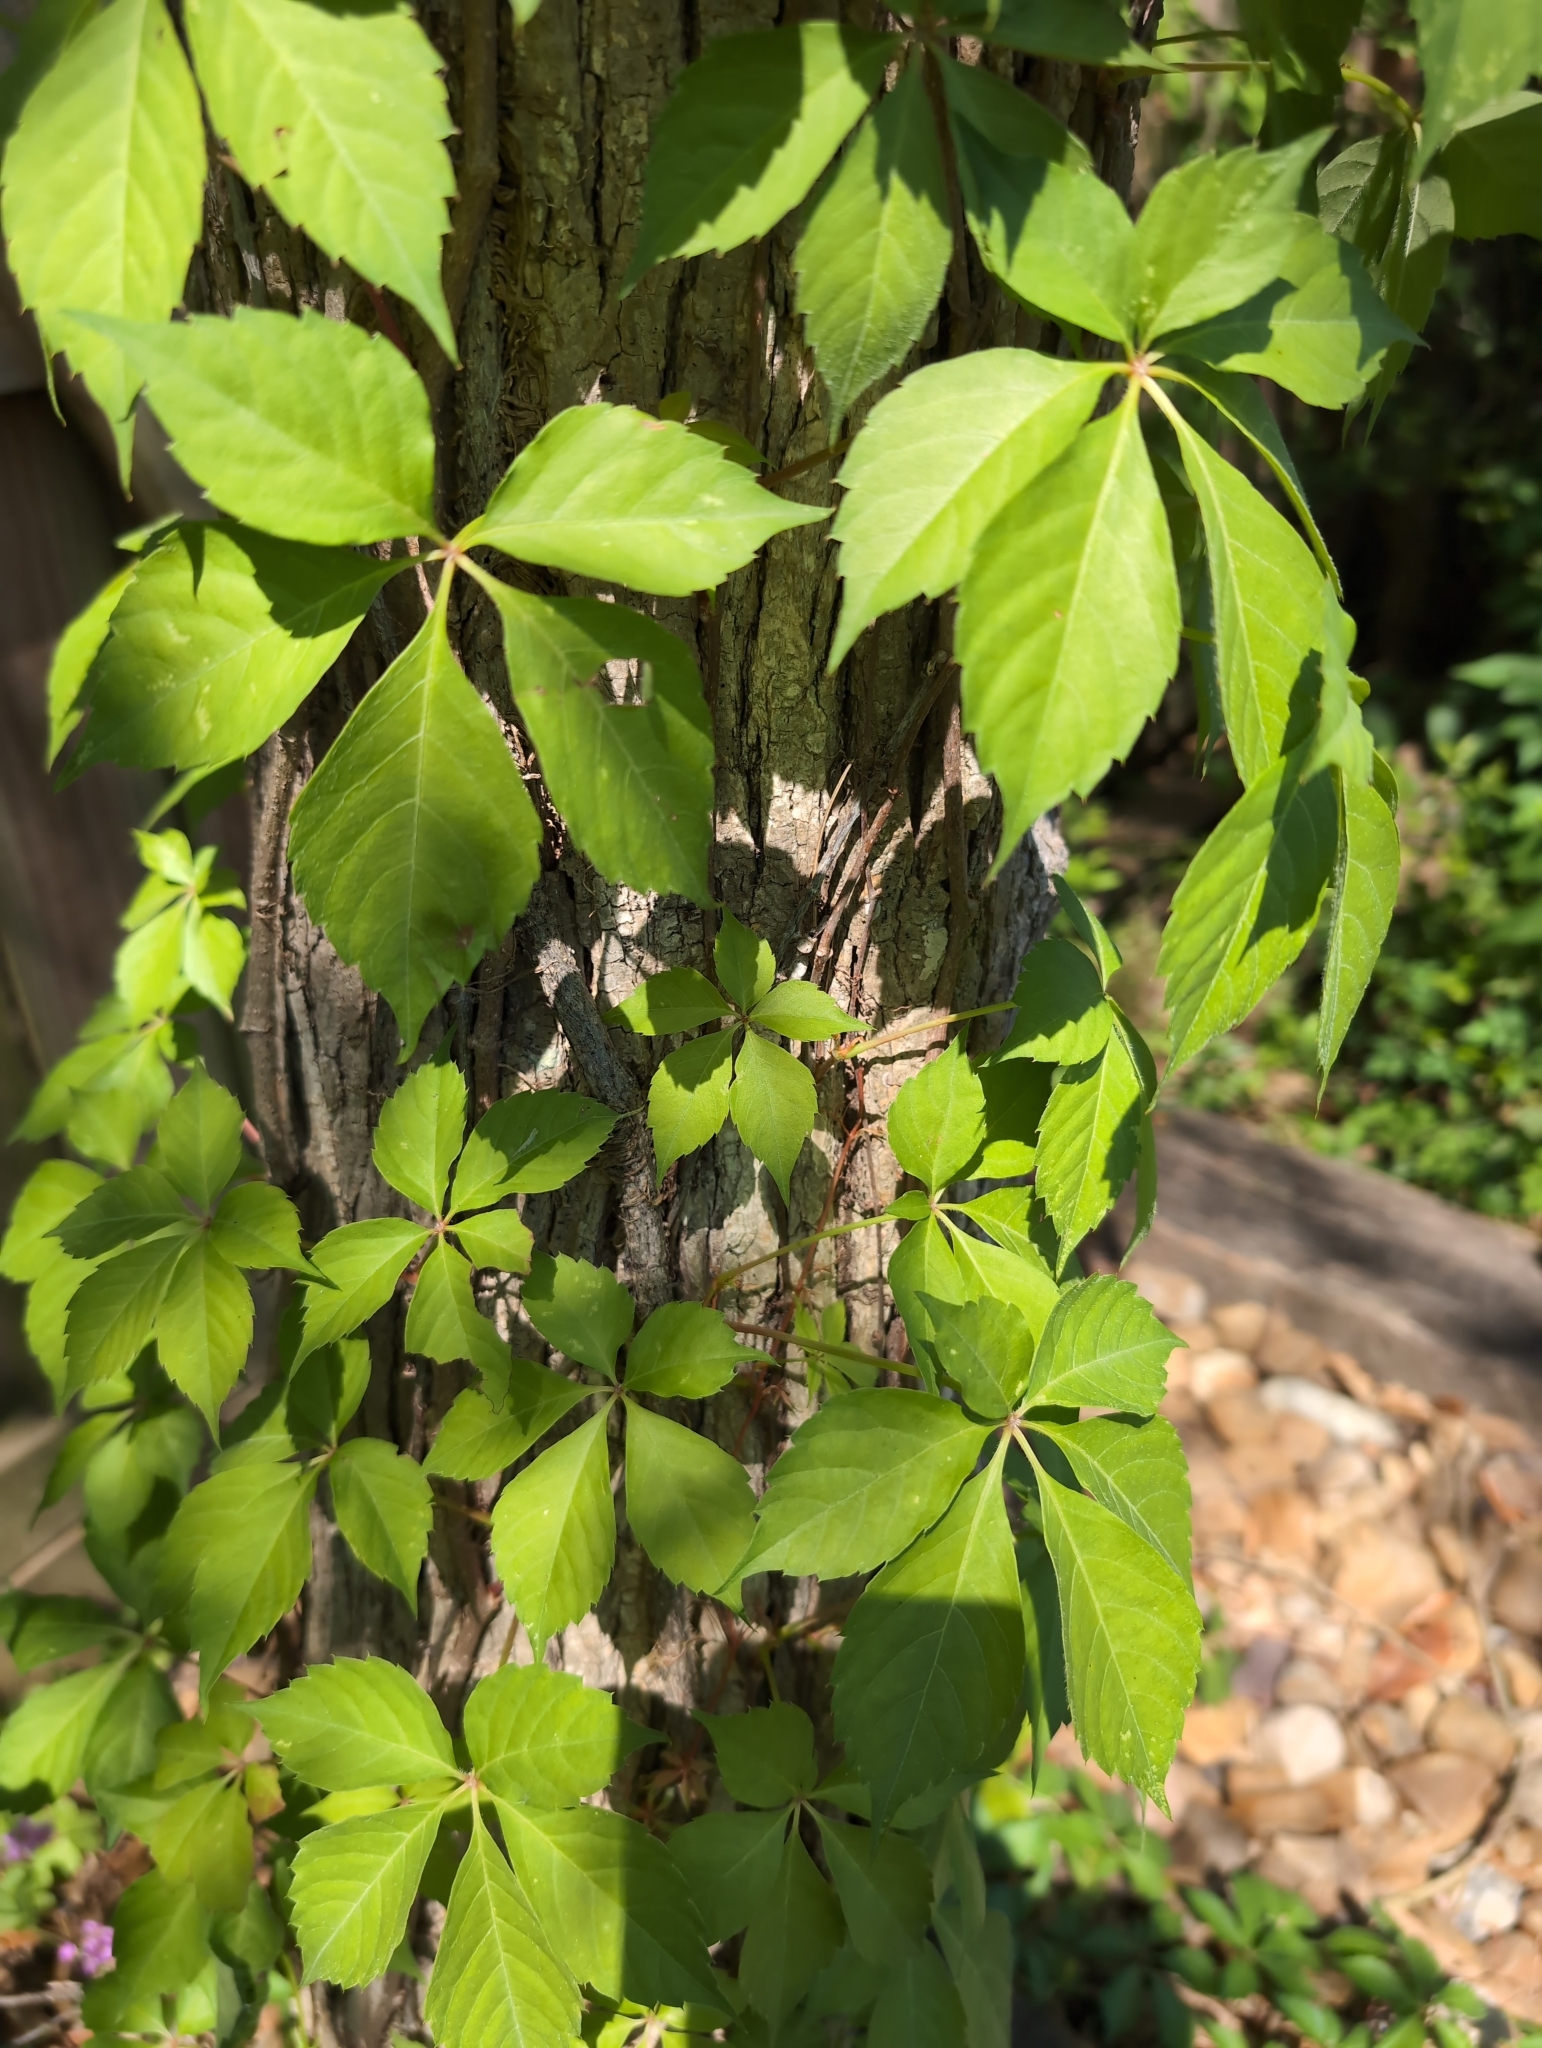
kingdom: Plantae
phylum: Tracheophyta
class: Magnoliopsida
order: Vitales
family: Vitaceae
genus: Parthenocissus
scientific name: Parthenocissus quinquefolia
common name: Virginia-creeper
